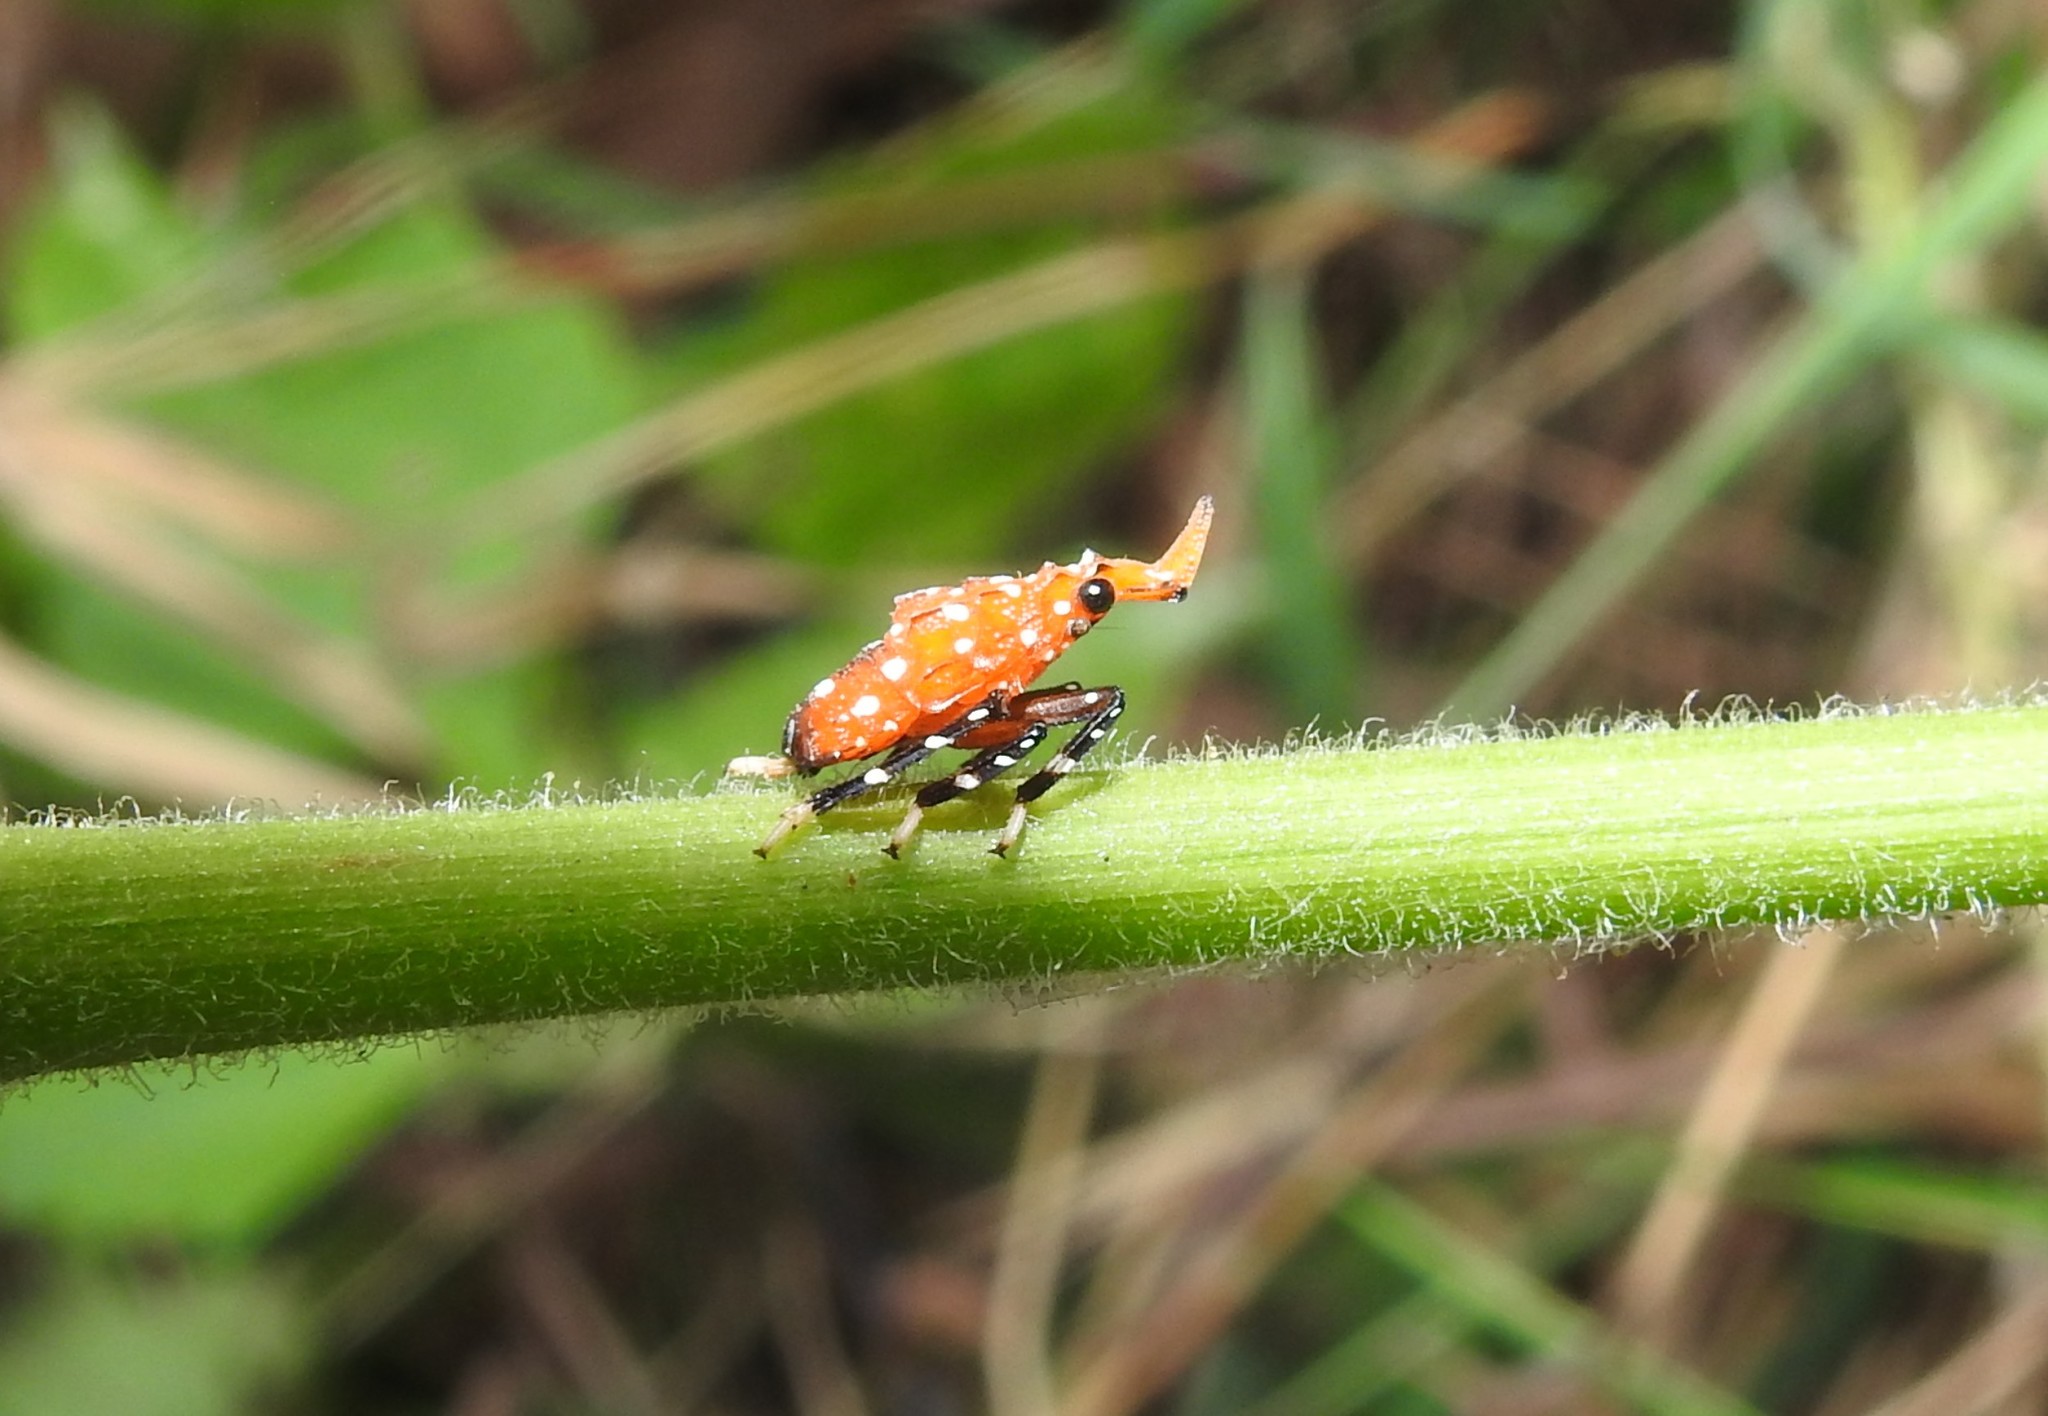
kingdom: Animalia
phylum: Arthropoda
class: Insecta
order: Hemiptera
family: Fulgoridae
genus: Kalidasa
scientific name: Kalidasa lanata
